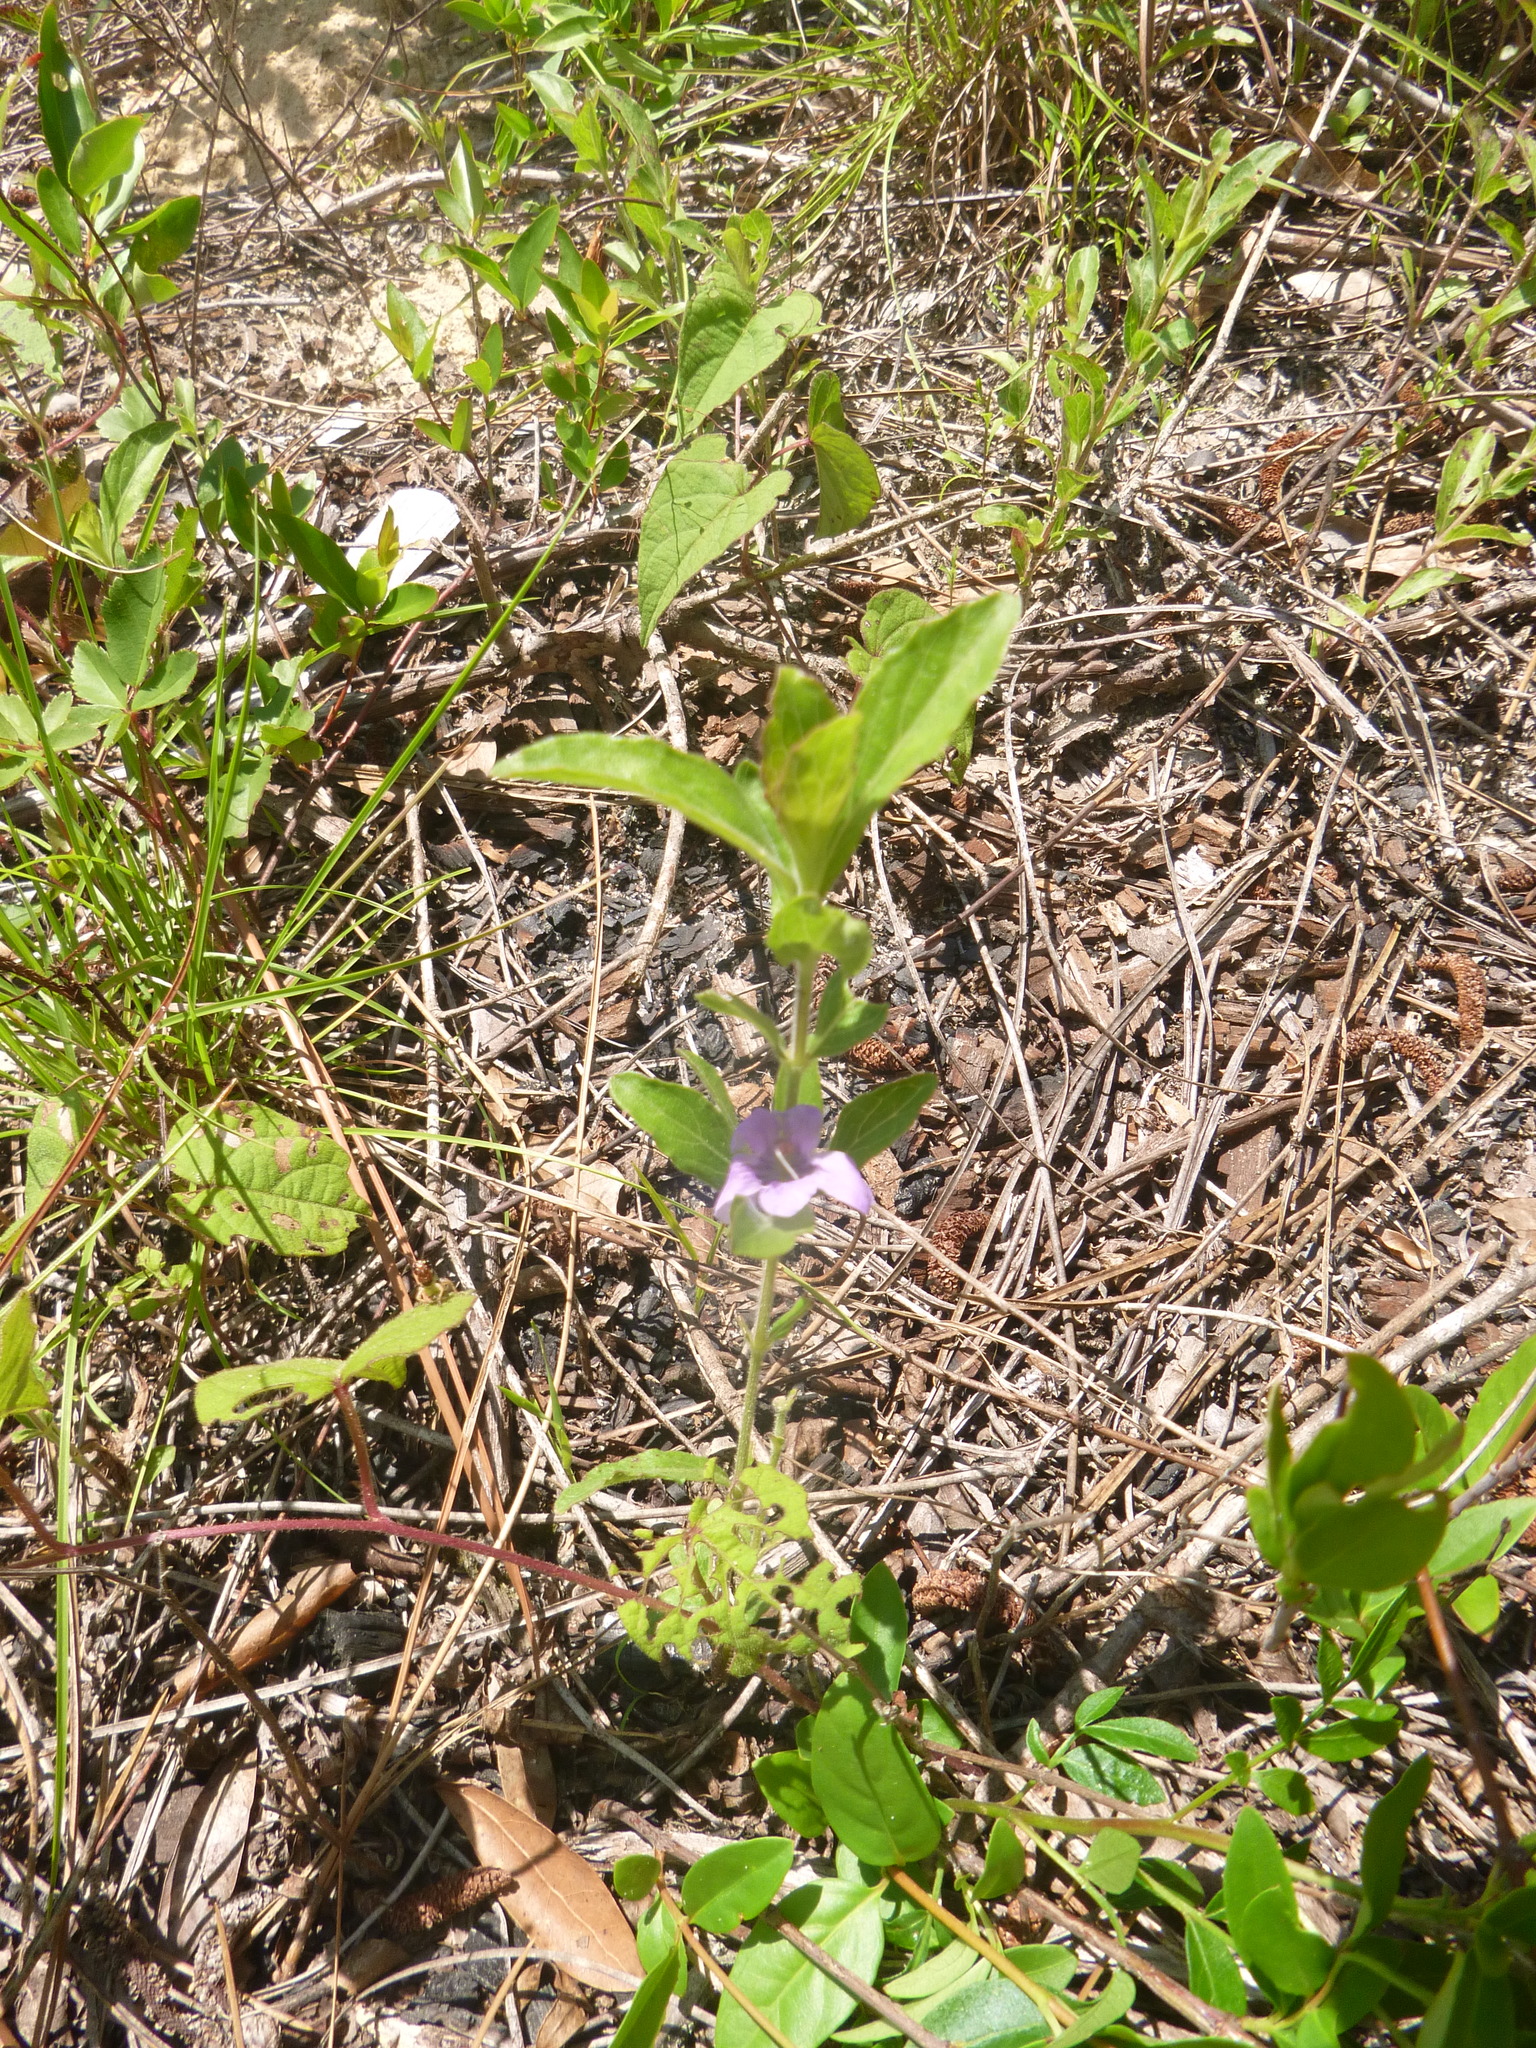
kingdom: Plantae
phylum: Tracheophyta
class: Magnoliopsida
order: Lamiales
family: Acanthaceae
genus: Dyschoriste
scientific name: Dyschoriste oblongifolia
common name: Blue twinflower
